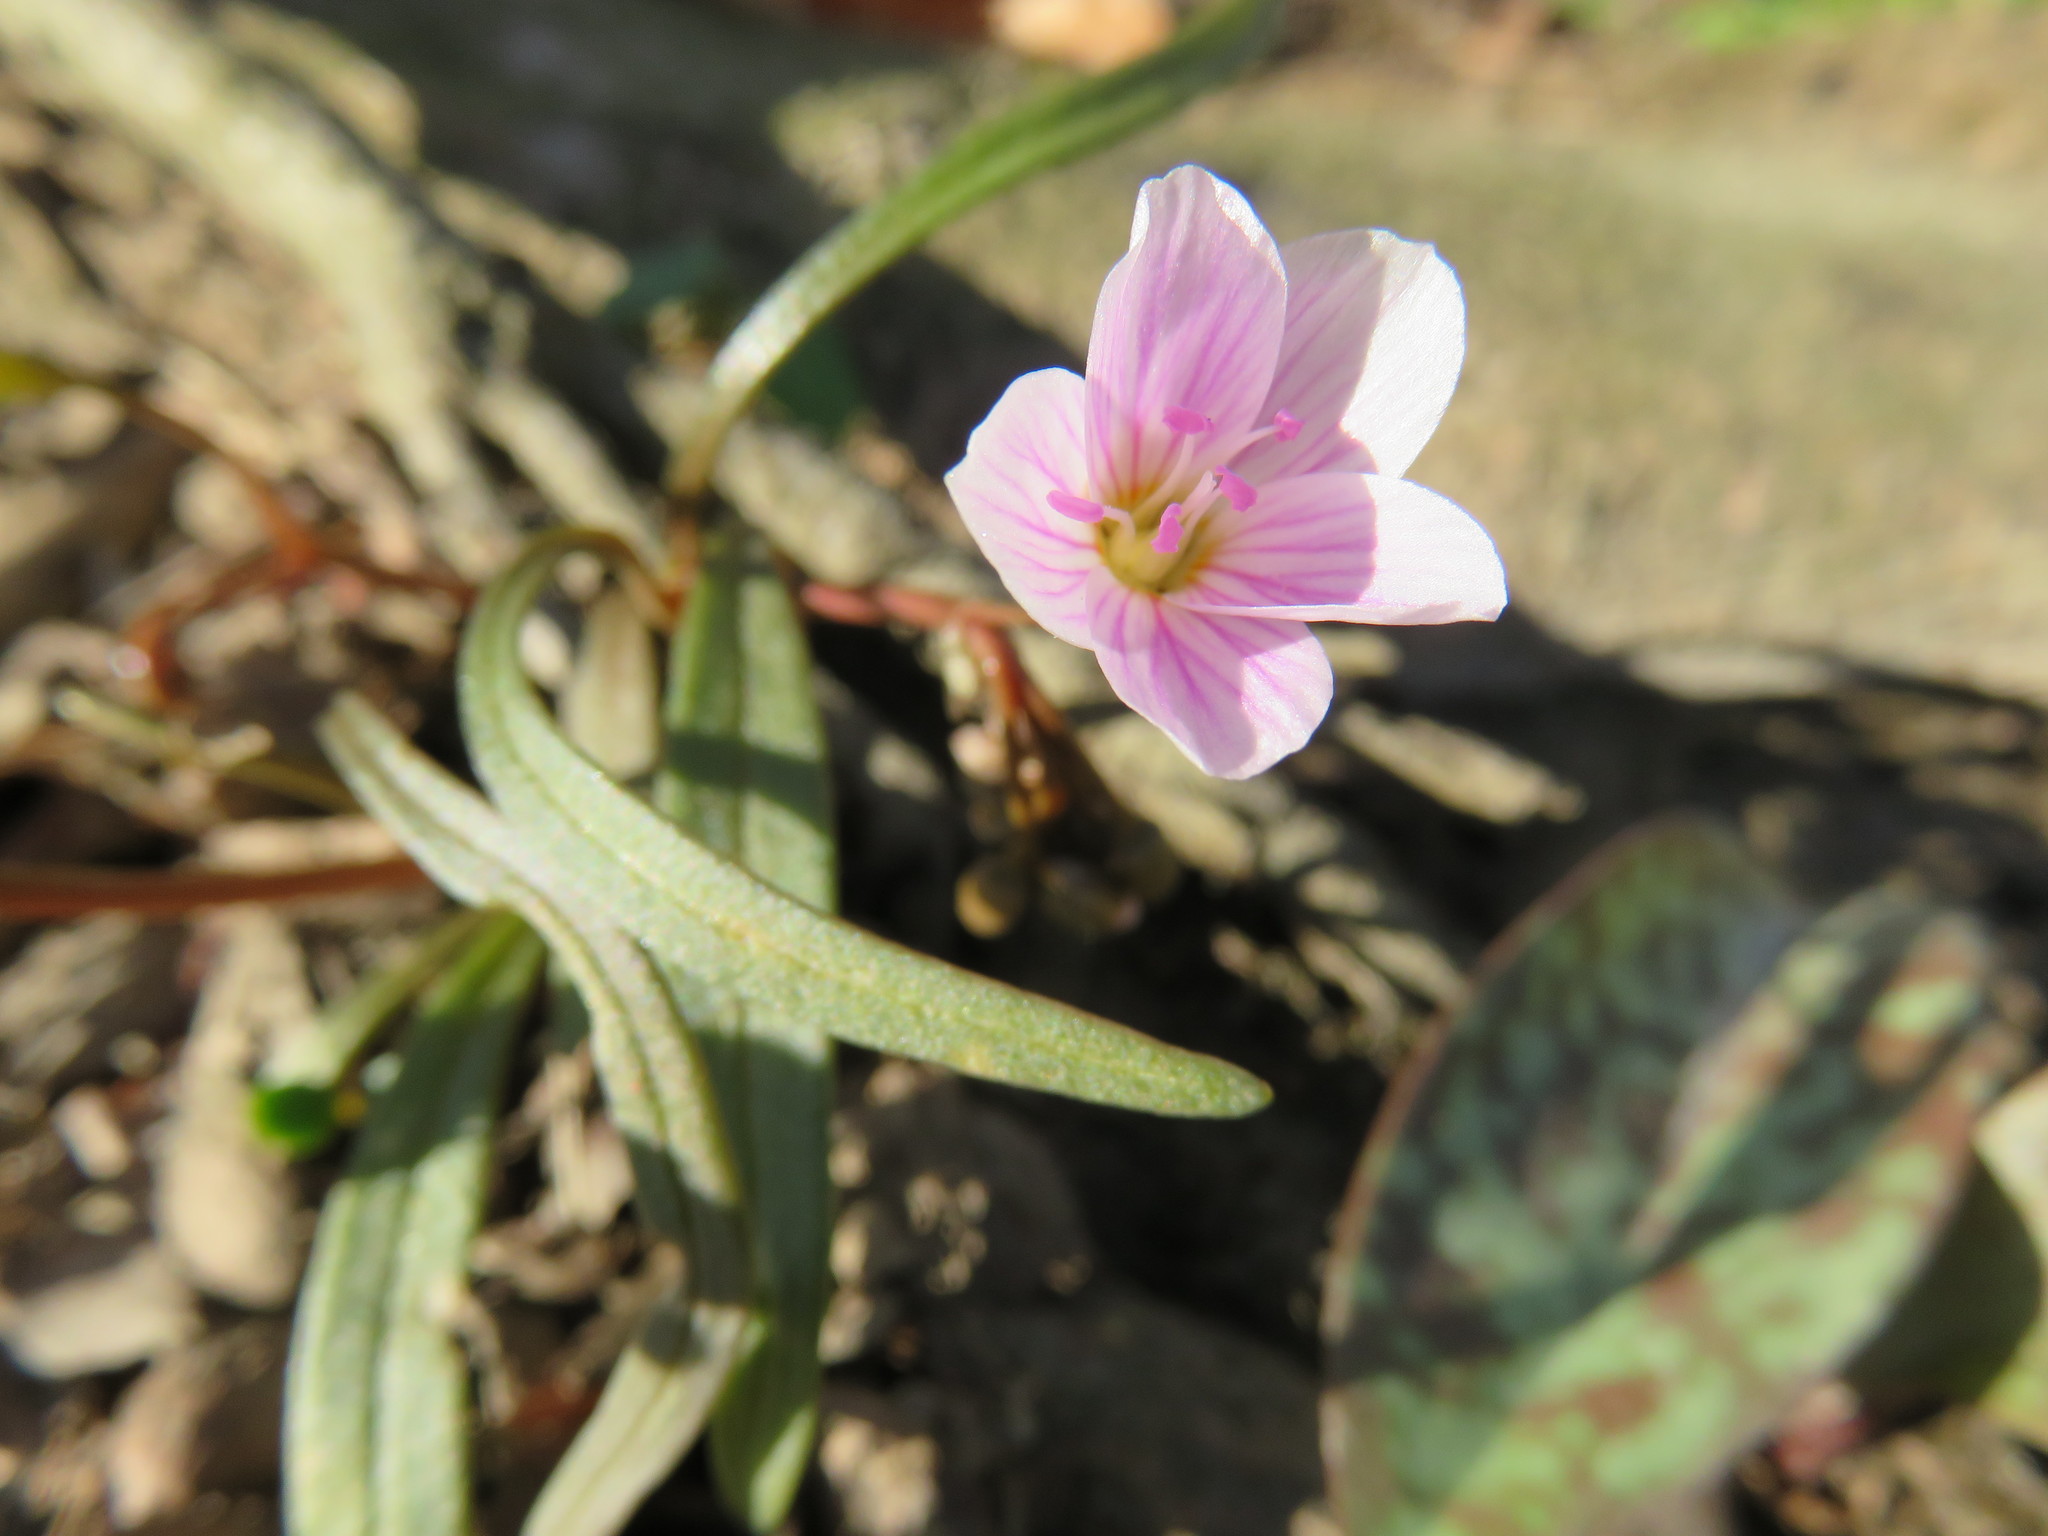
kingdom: Plantae
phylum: Tracheophyta
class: Magnoliopsida
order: Caryophyllales
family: Montiaceae
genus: Claytonia
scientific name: Claytonia virginica
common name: Virginia springbeauty
